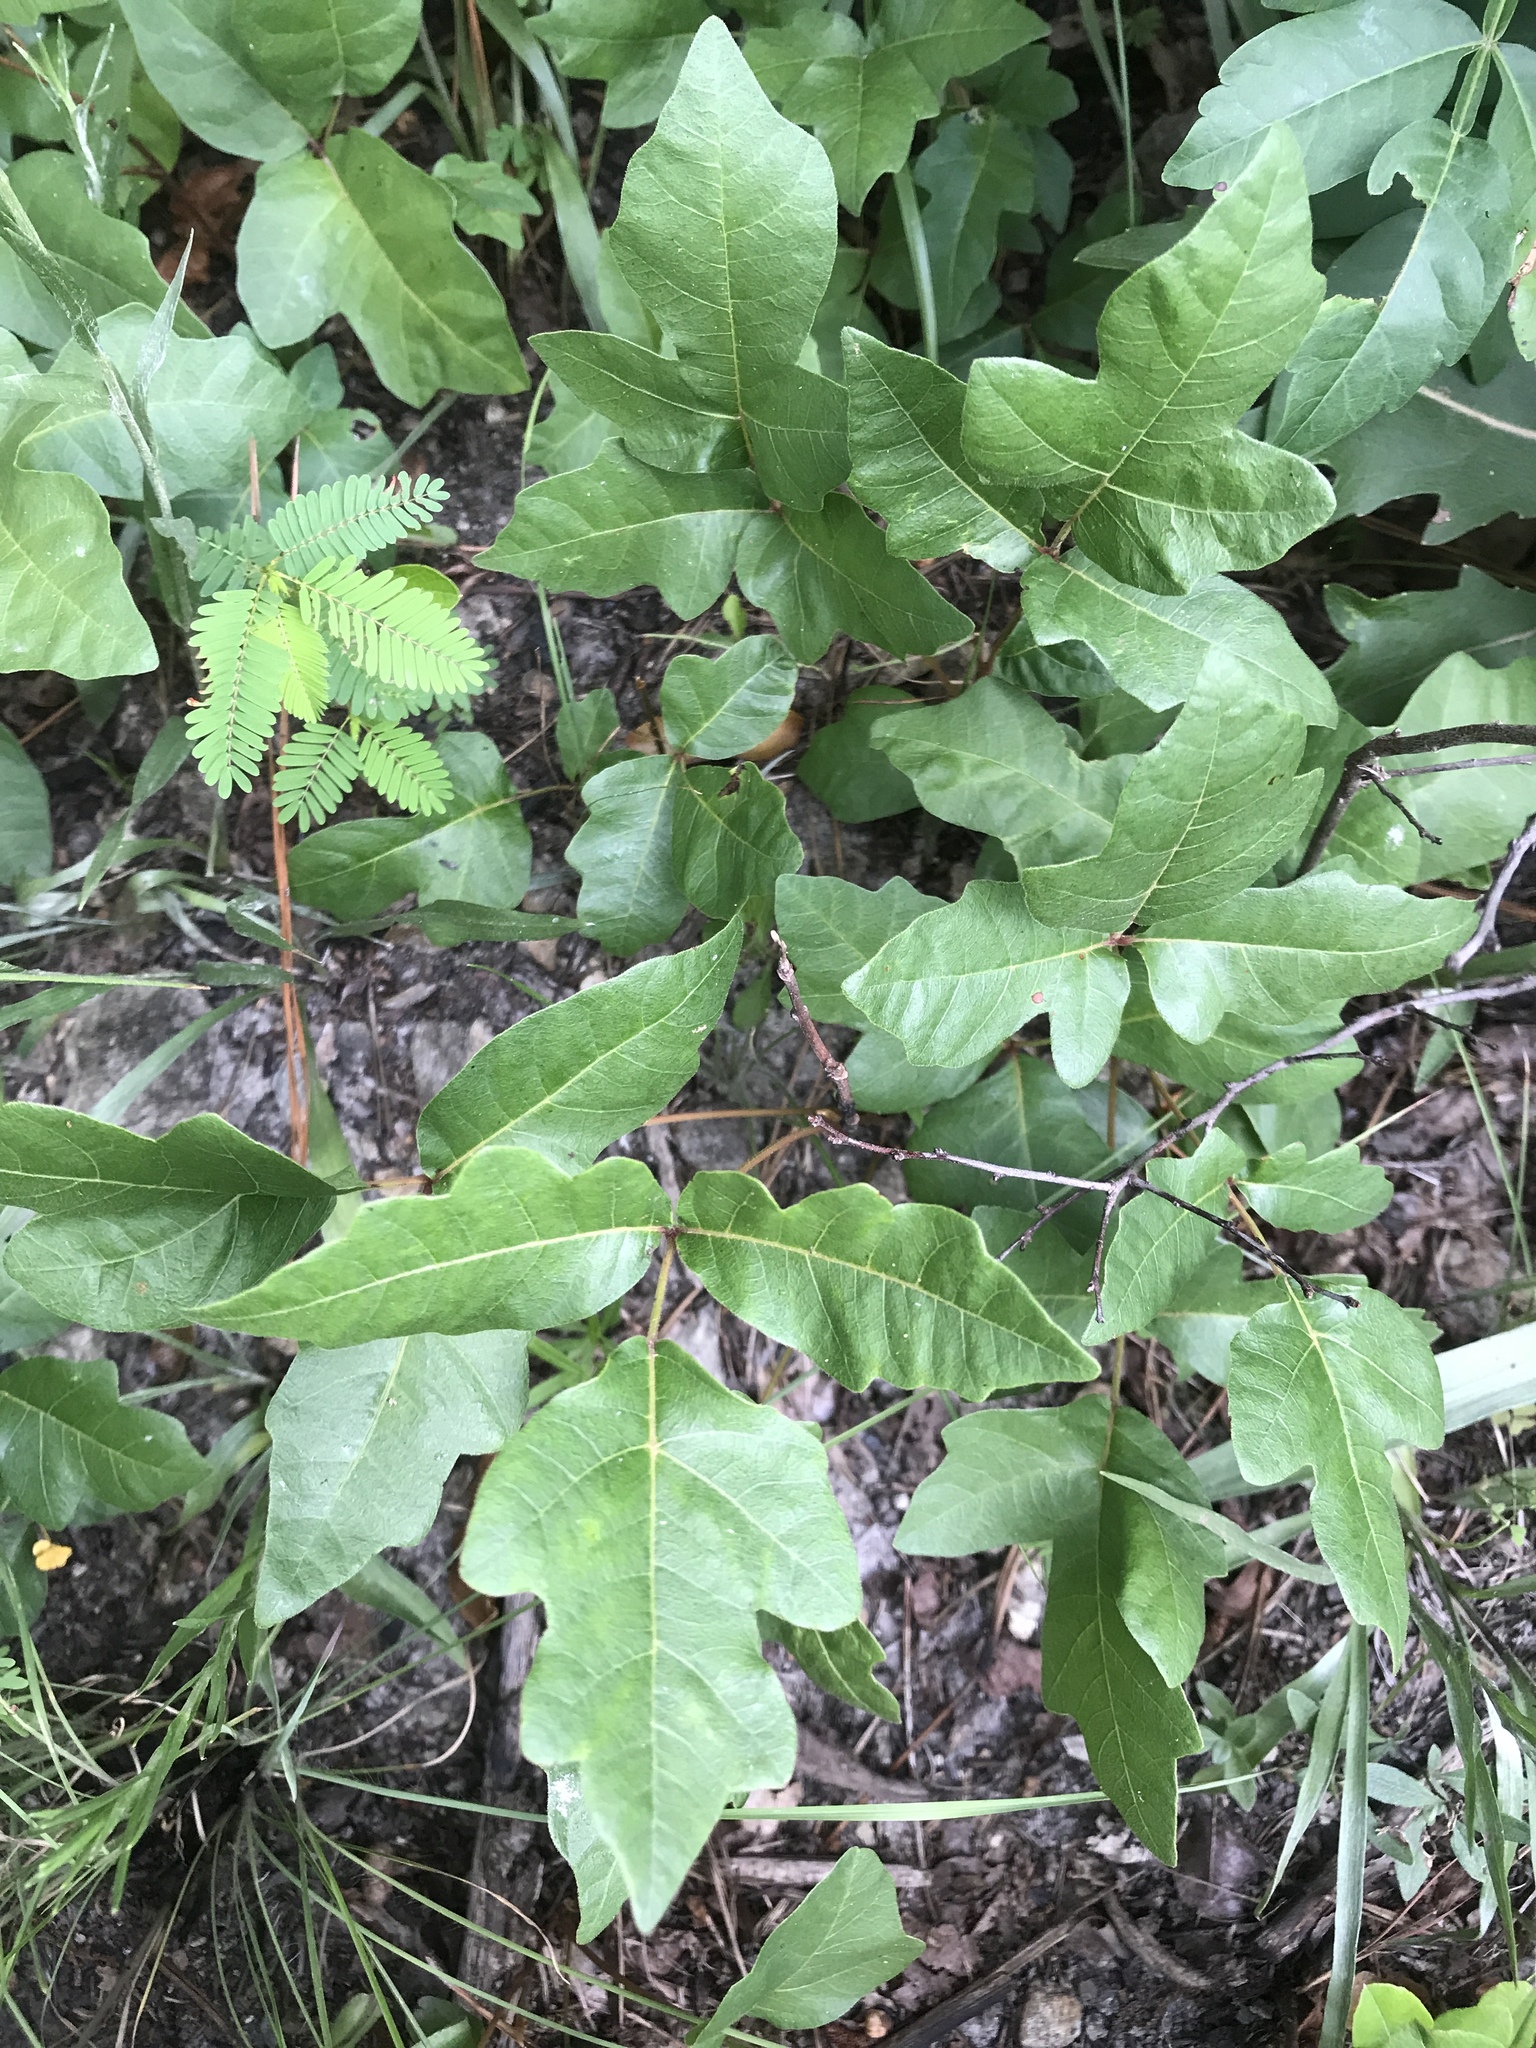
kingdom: Plantae
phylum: Tracheophyta
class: Magnoliopsida
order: Sapindales
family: Anacardiaceae
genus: Toxicodendron
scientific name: Toxicodendron pubescens
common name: Eastern poison-oak
